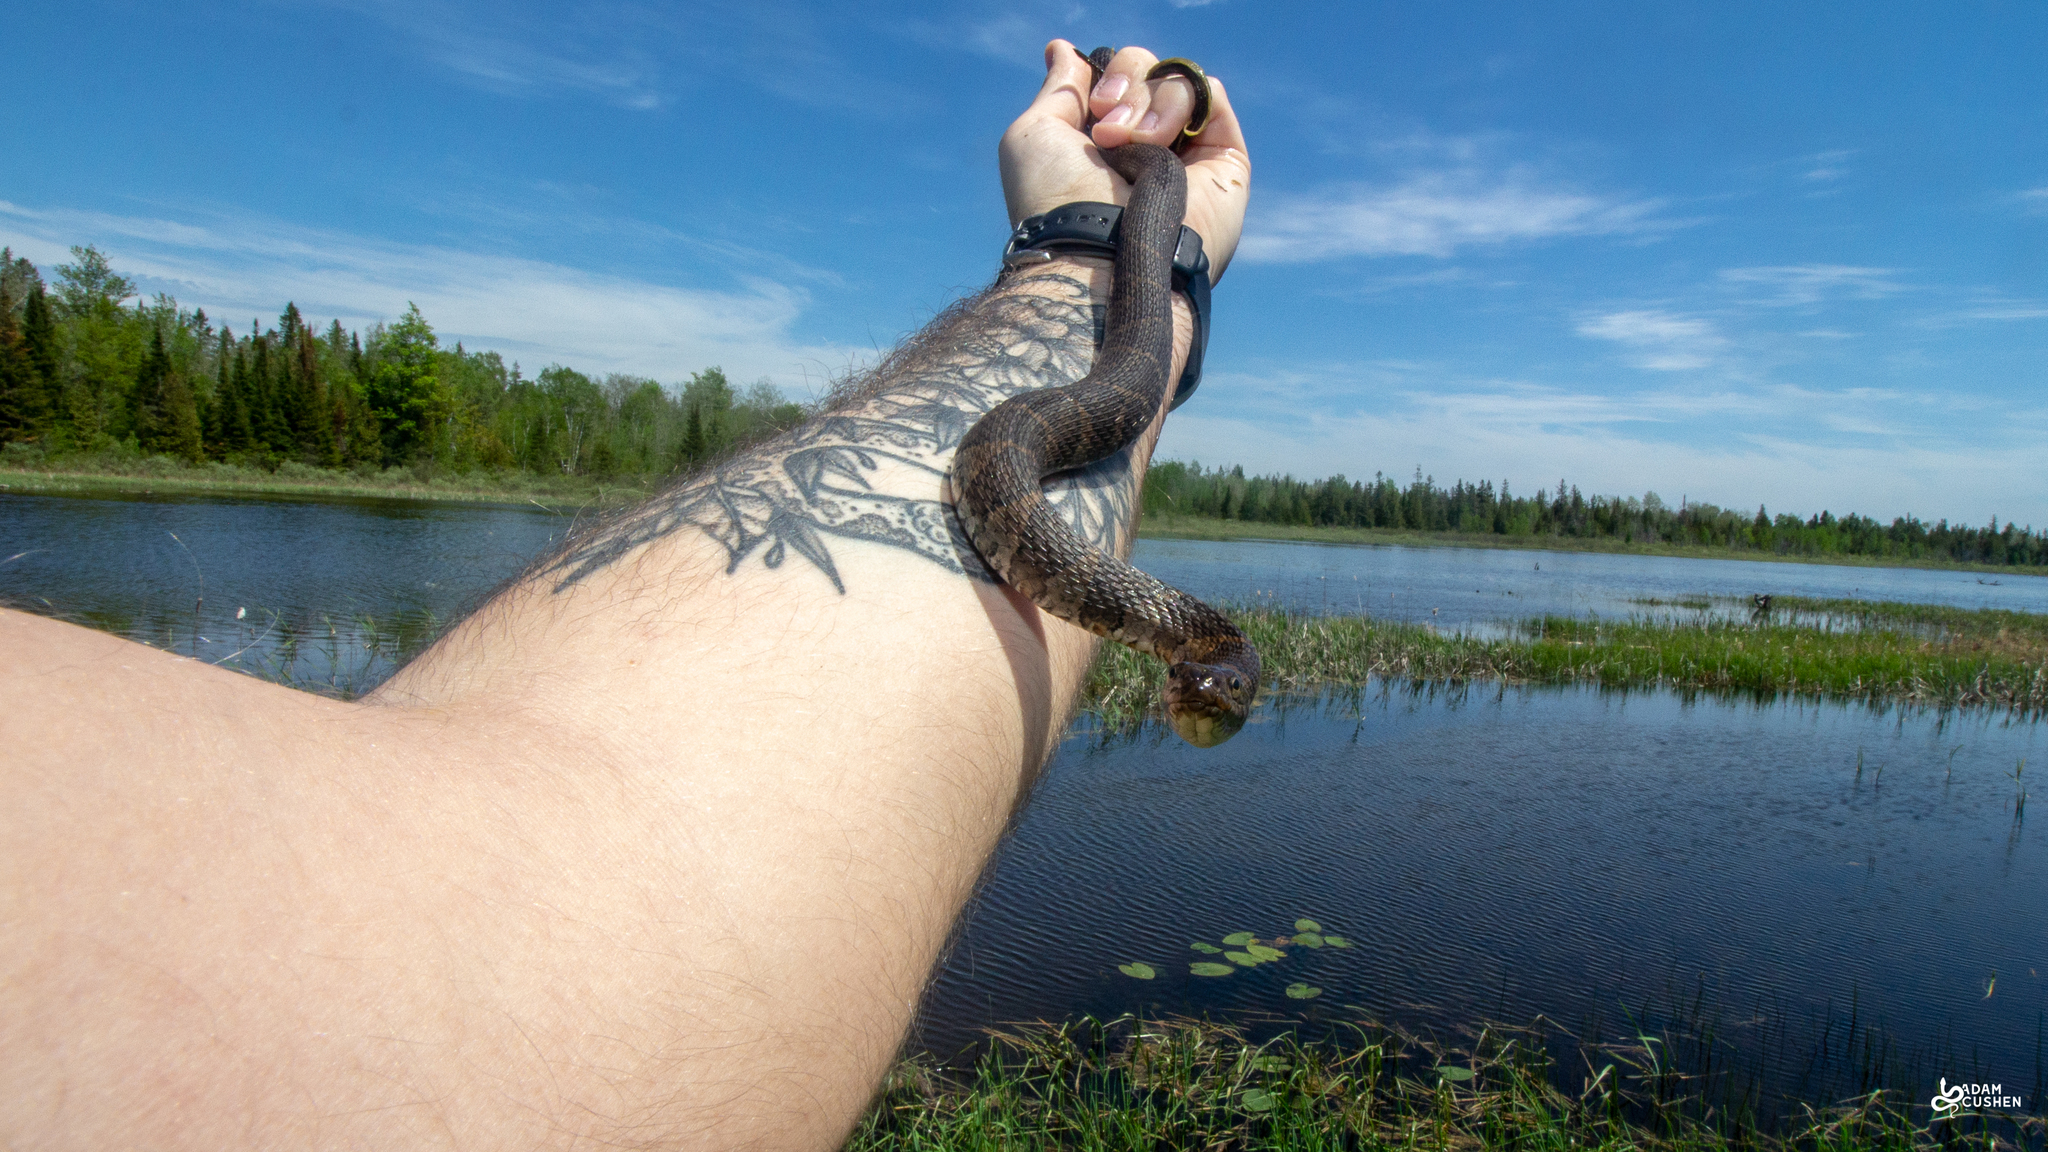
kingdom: Animalia
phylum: Chordata
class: Squamata
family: Colubridae
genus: Nerodia
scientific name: Nerodia sipedon
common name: Northern water snake
